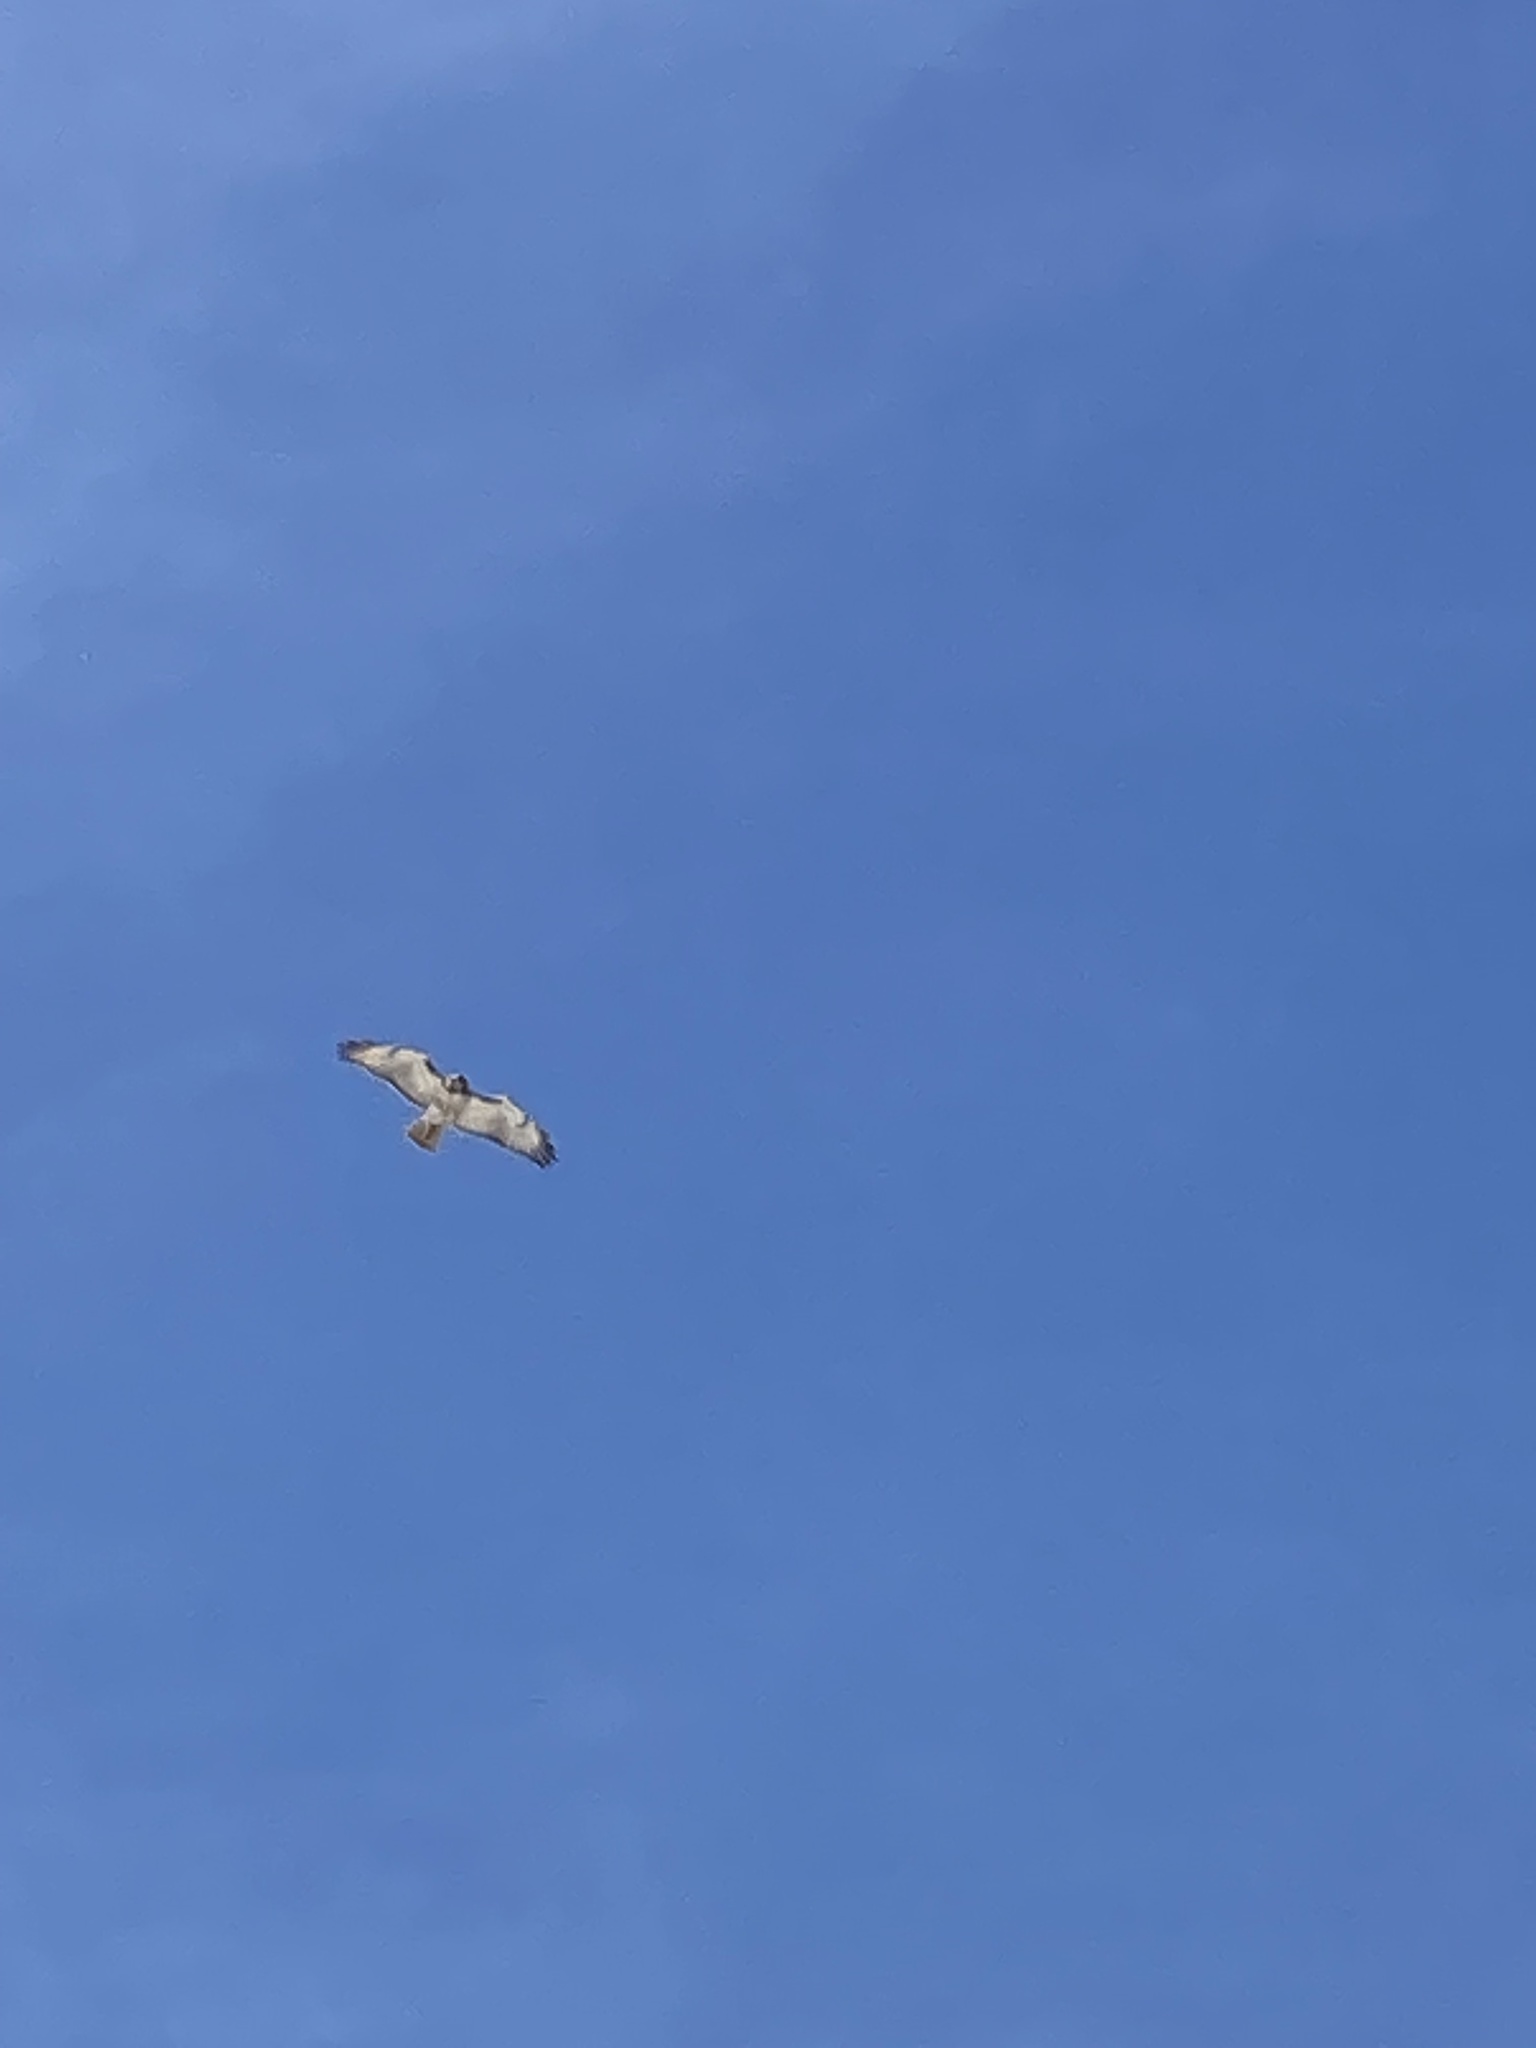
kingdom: Animalia
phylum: Chordata
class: Aves
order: Accipitriformes
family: Accipitridae
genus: Buteo
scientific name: Buteo jamaicensis
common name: Red-tailed hawk
